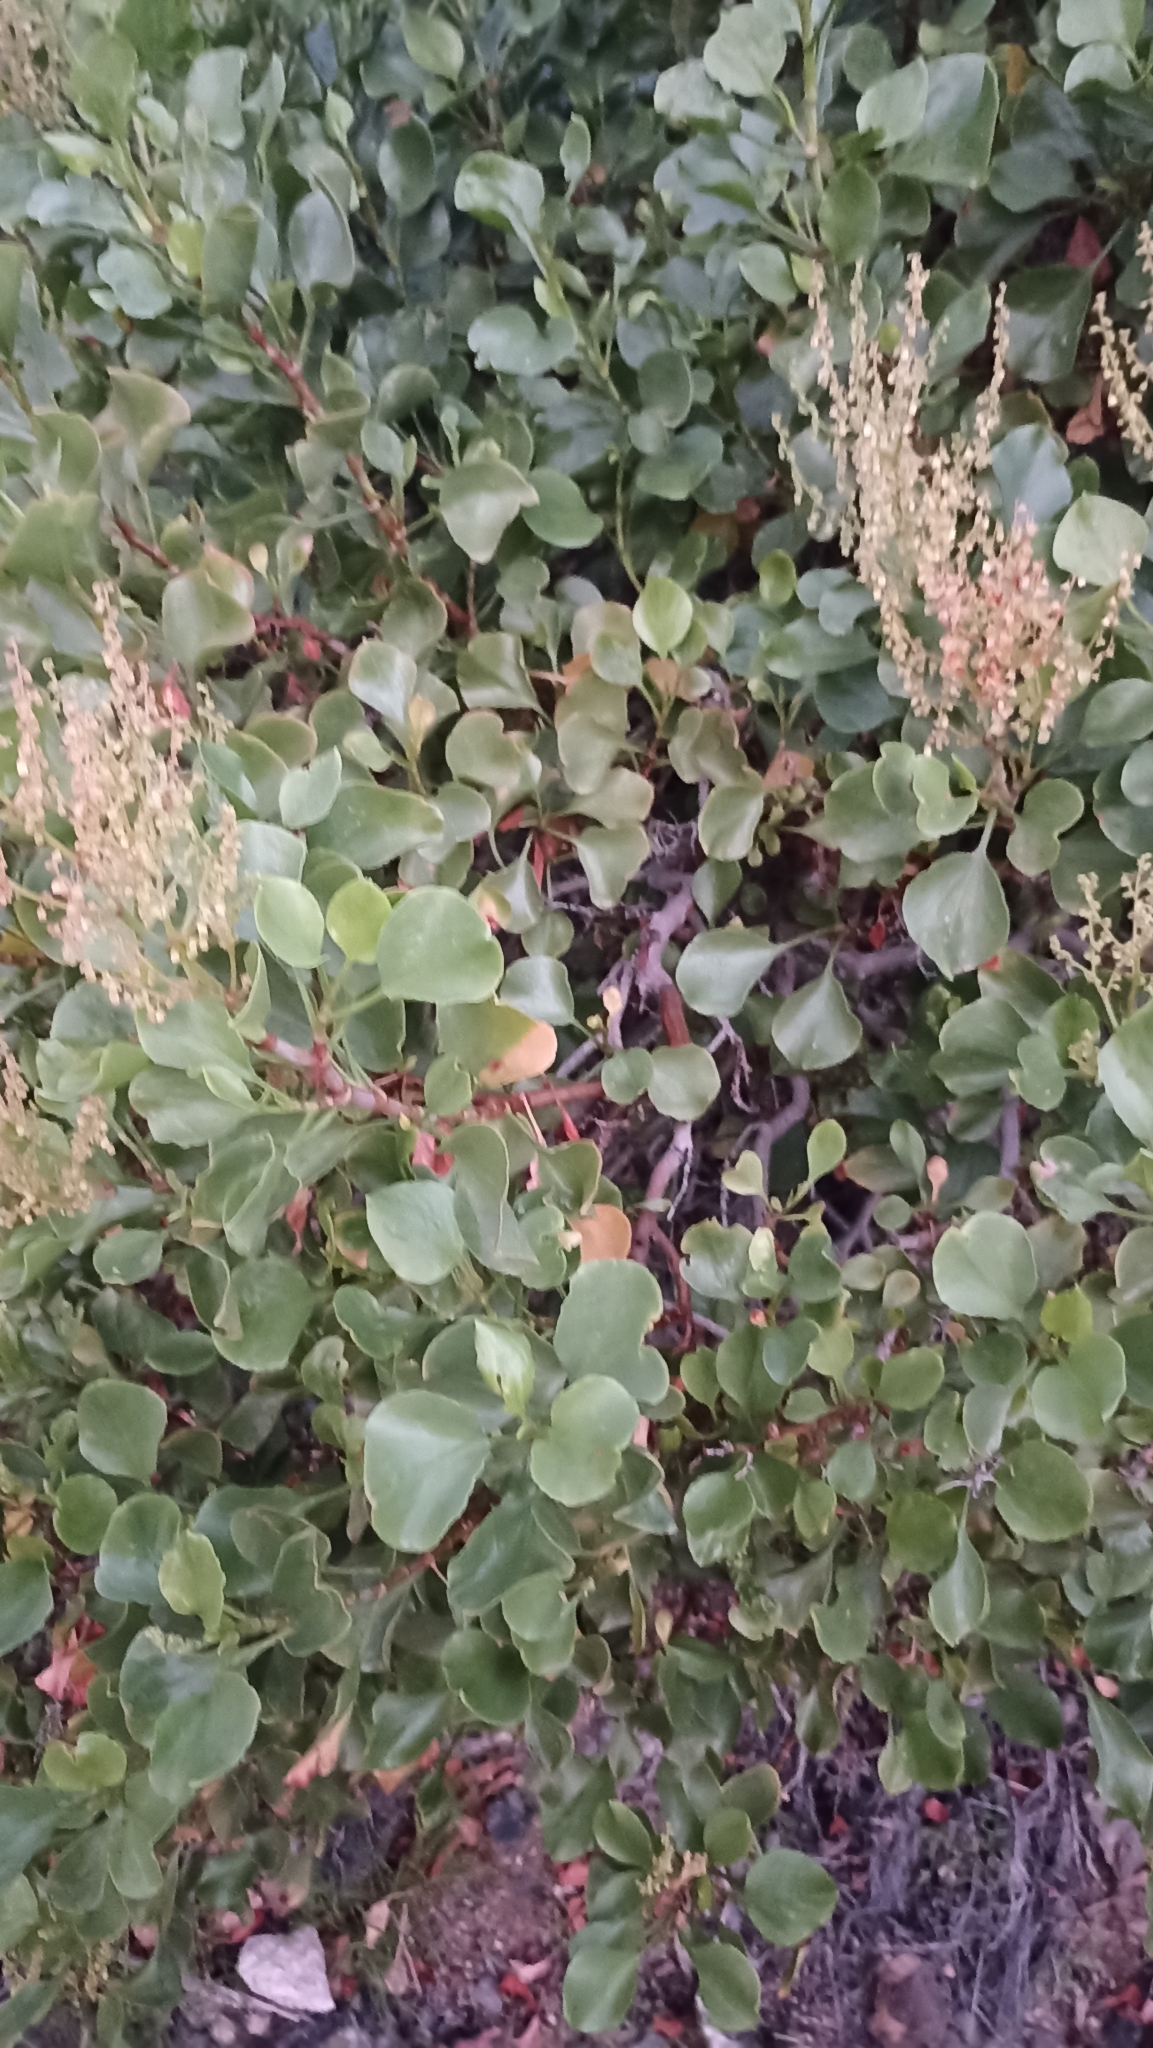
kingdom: Plantae
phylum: Tracheophyta
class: Magnoliopsida
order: Caryophyllales
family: Polygonaceae
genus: Rumex
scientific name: Rumex lunaria
